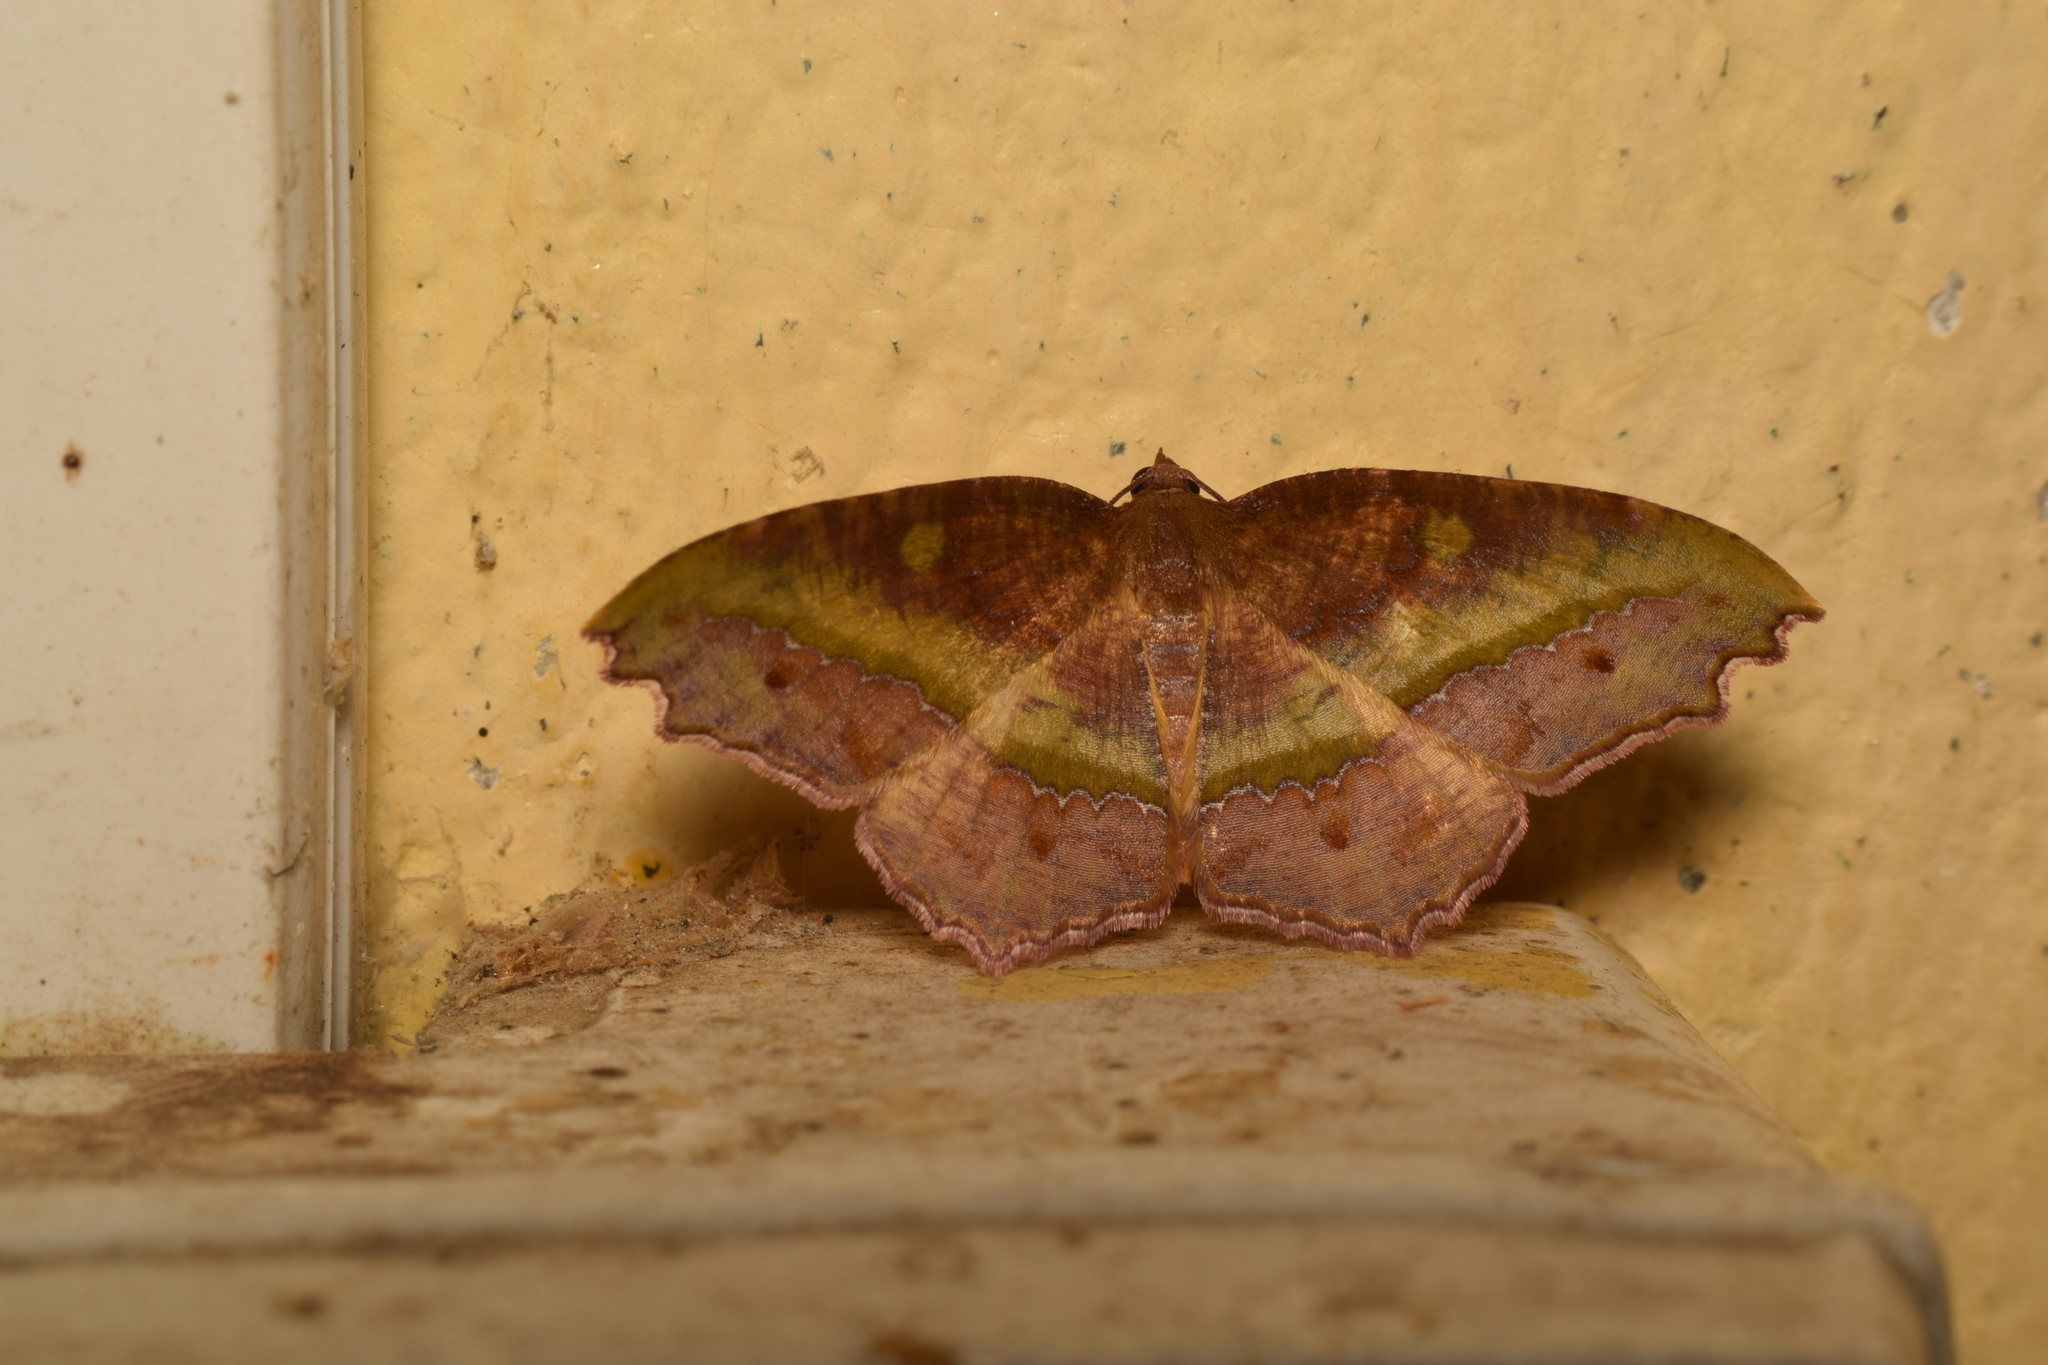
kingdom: Animalia
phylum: Arthropoda
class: Insecta
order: Lepidoptera
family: Geometridae
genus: Leptomiza
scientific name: Leptomiza calcearia
